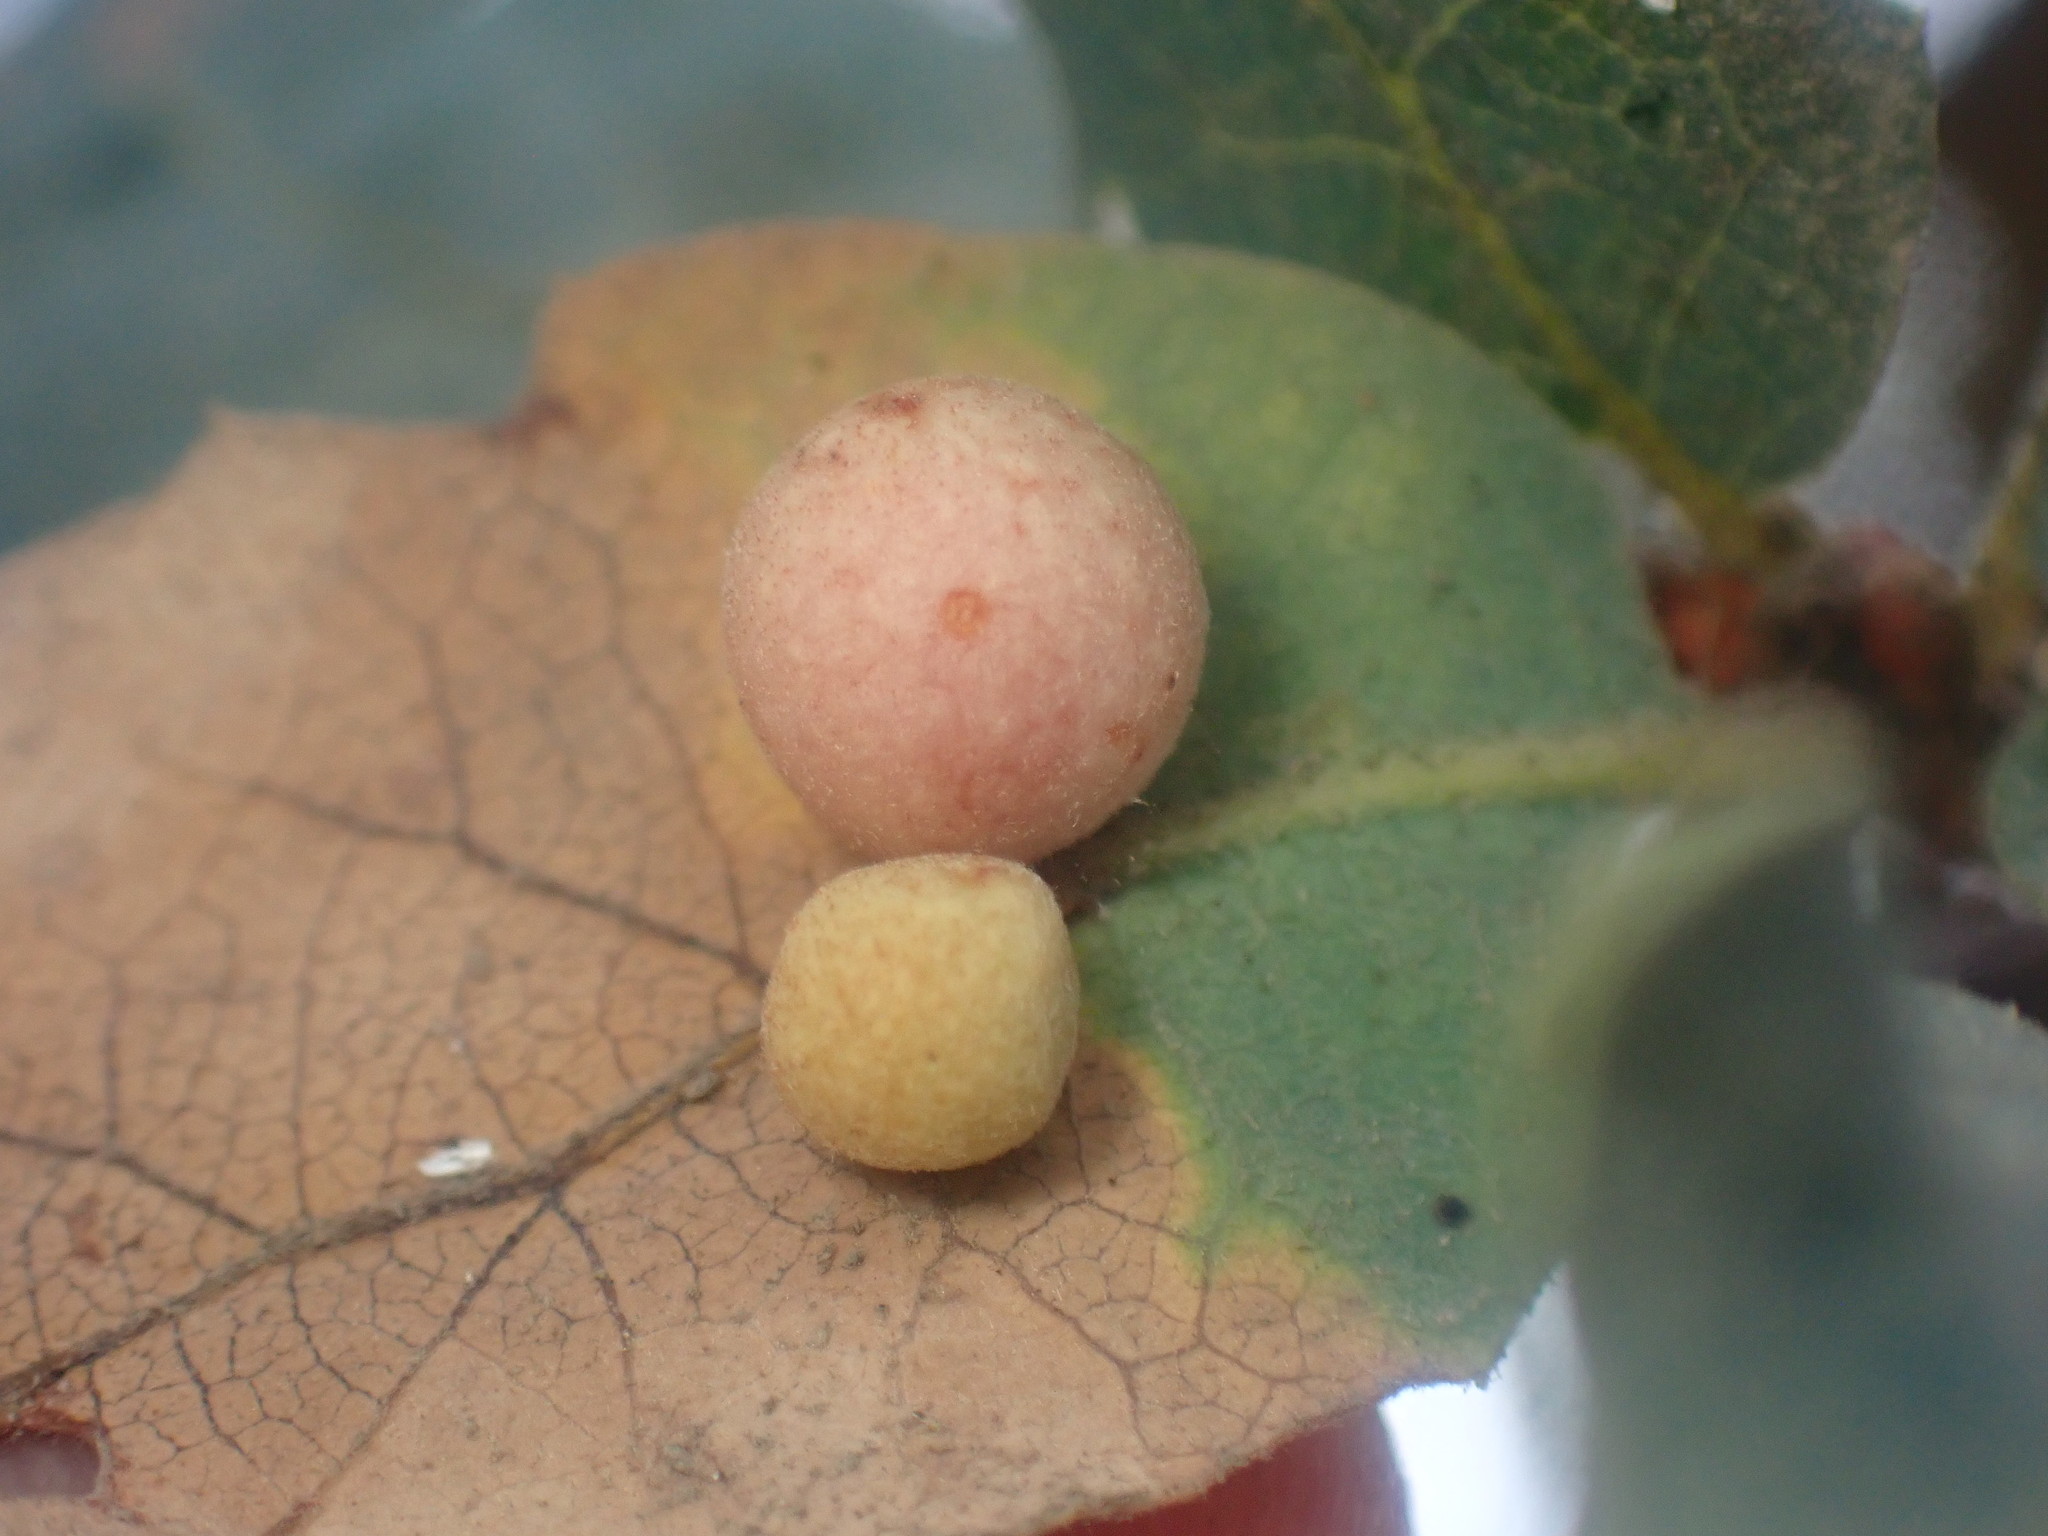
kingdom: Animalia
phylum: Arthropoda
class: Insecta
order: Hymenoptera
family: Cynipidae
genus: Andricus
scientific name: Andricus
